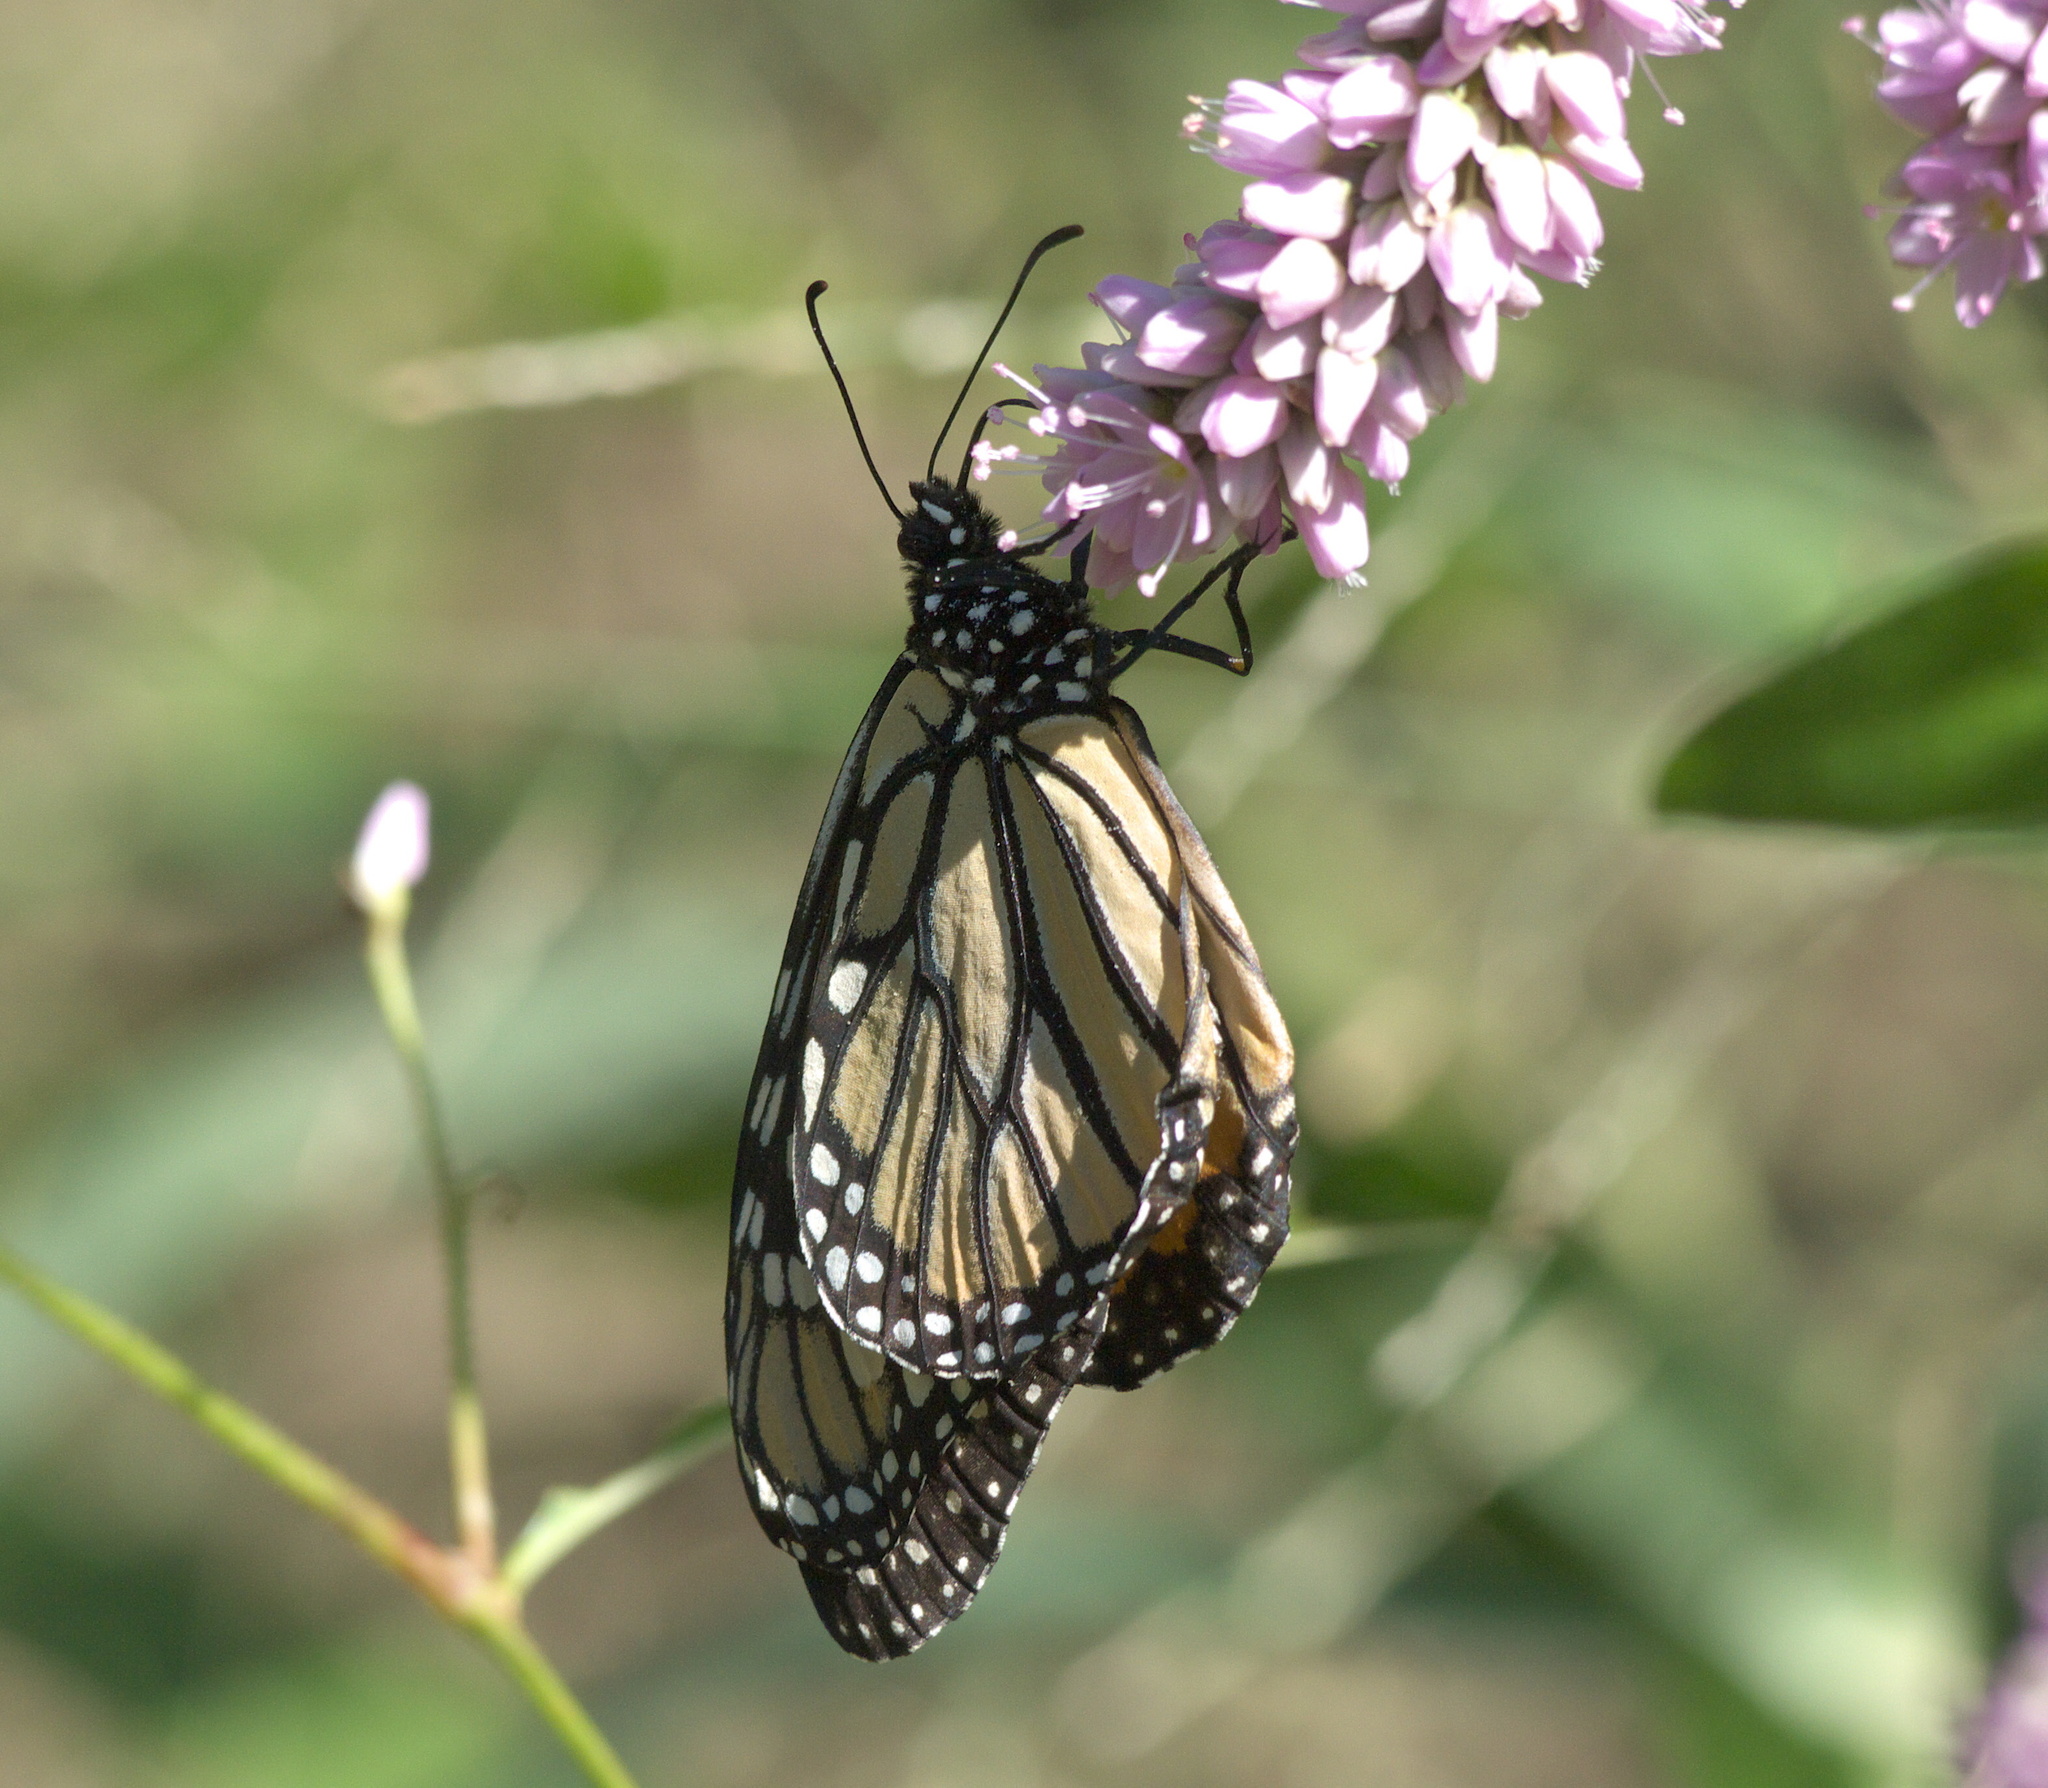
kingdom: Animalia
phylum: Arthropoda
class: Insecta
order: Lepidoptera
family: Nymphalidae
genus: Danaus
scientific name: Danaus plexippus
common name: Monarch
